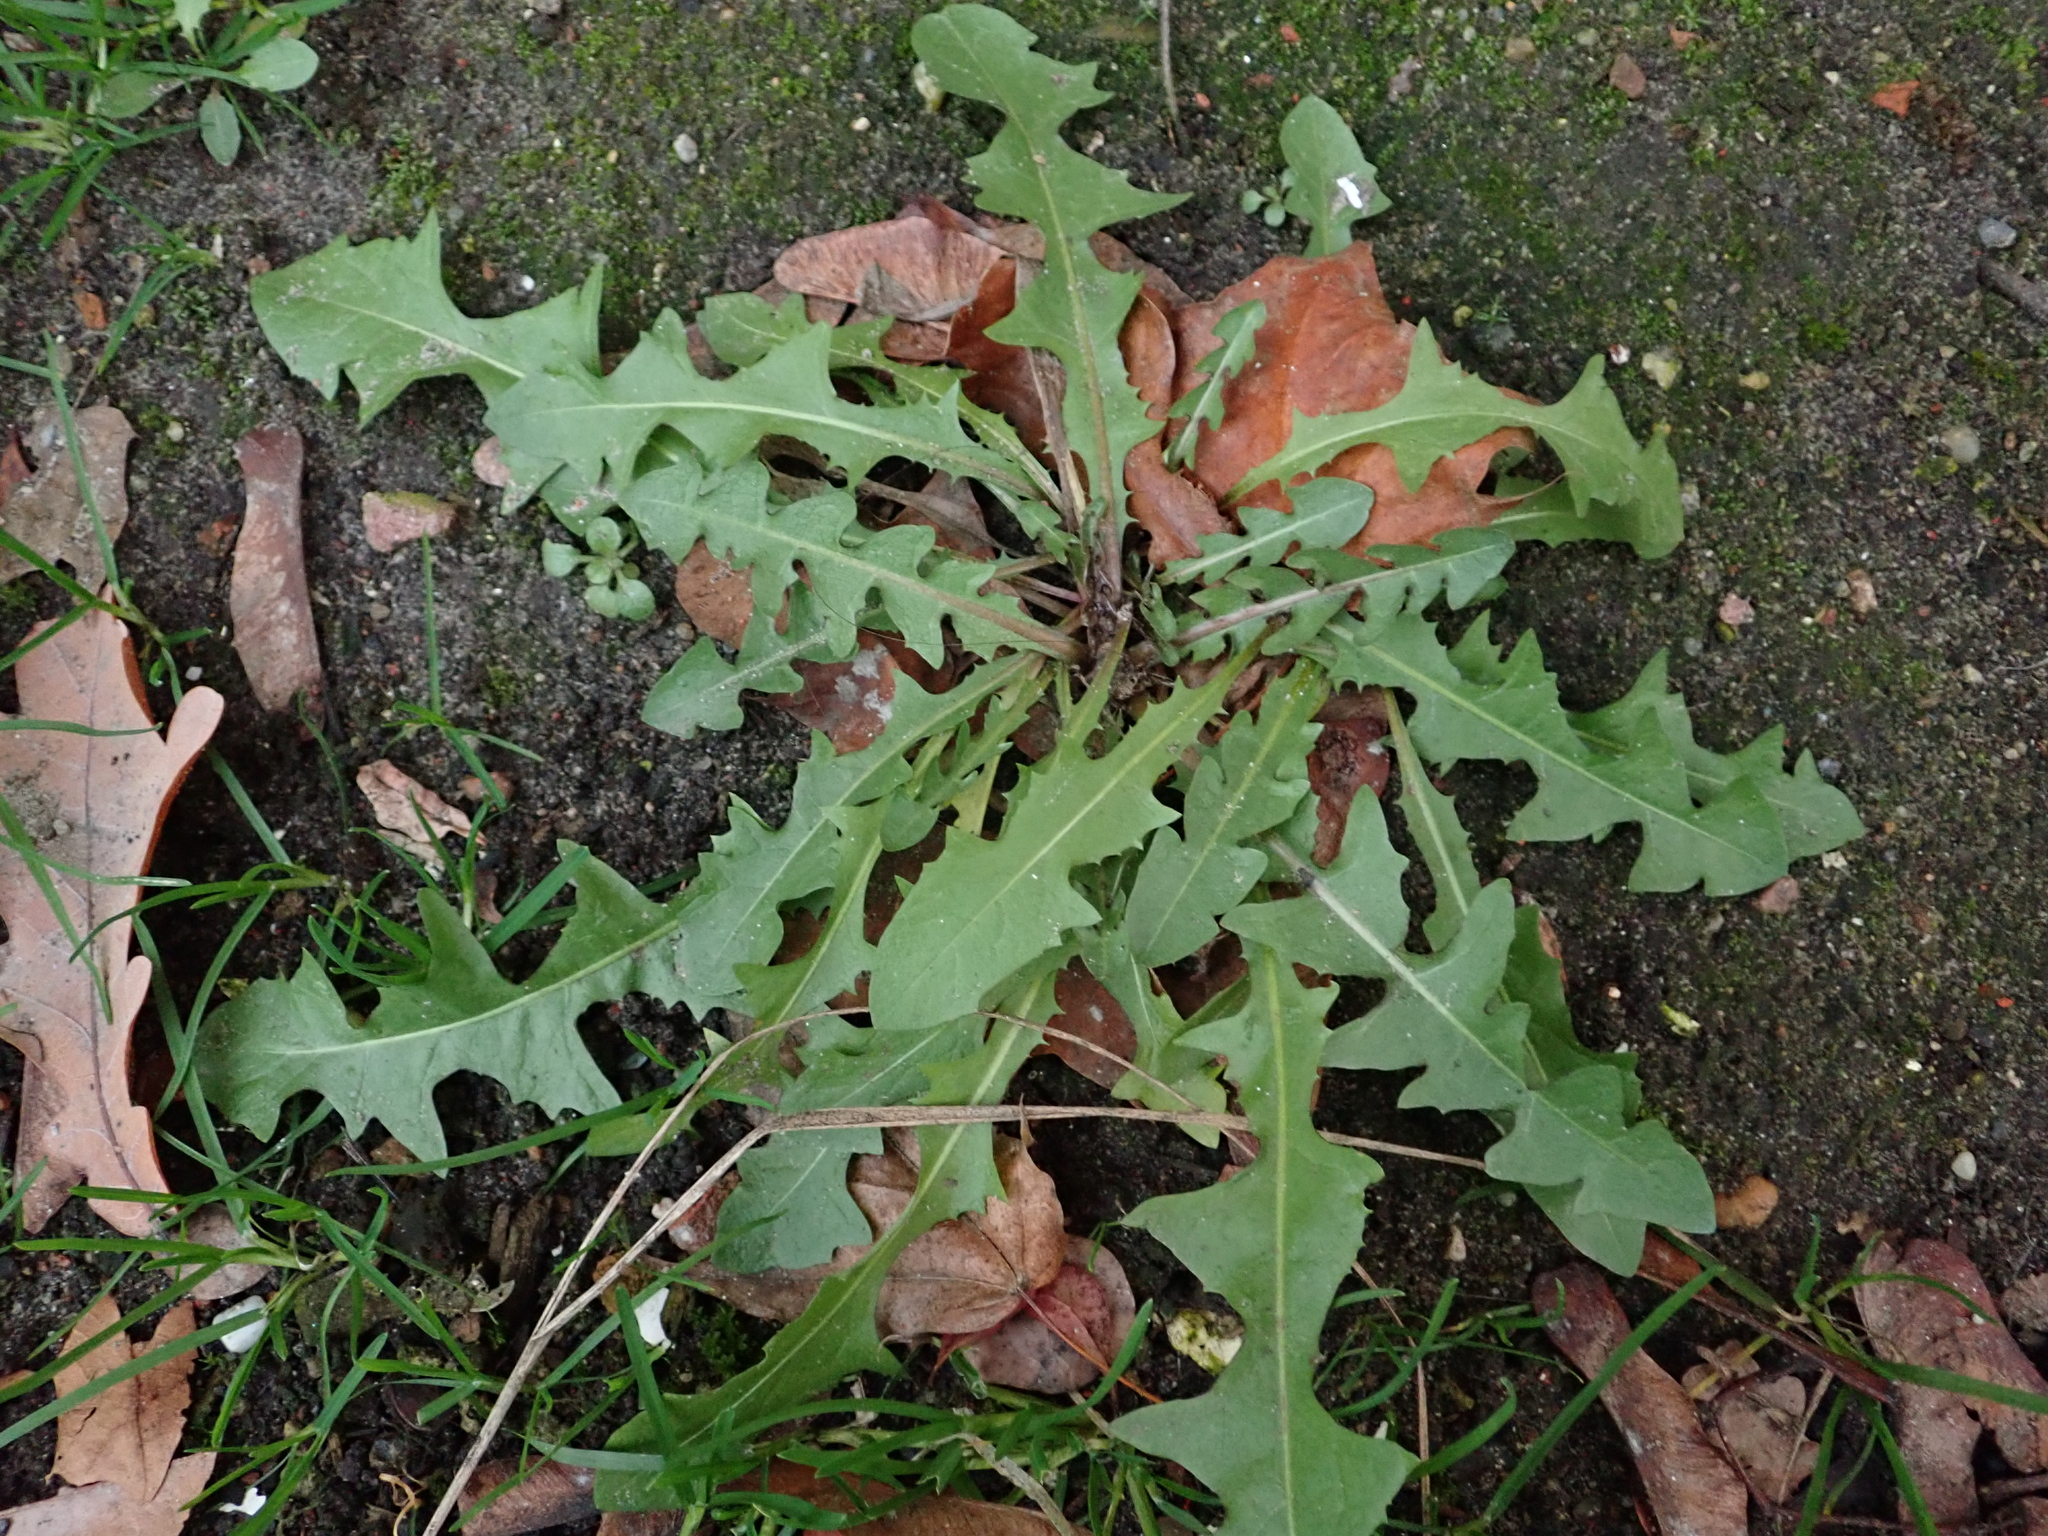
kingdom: Plantae
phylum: Tracheophyta
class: Magnoliopsida
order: Asterales
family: Asteraceae
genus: Taraxacum
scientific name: Taraxacum officinale
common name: Common dandelion
